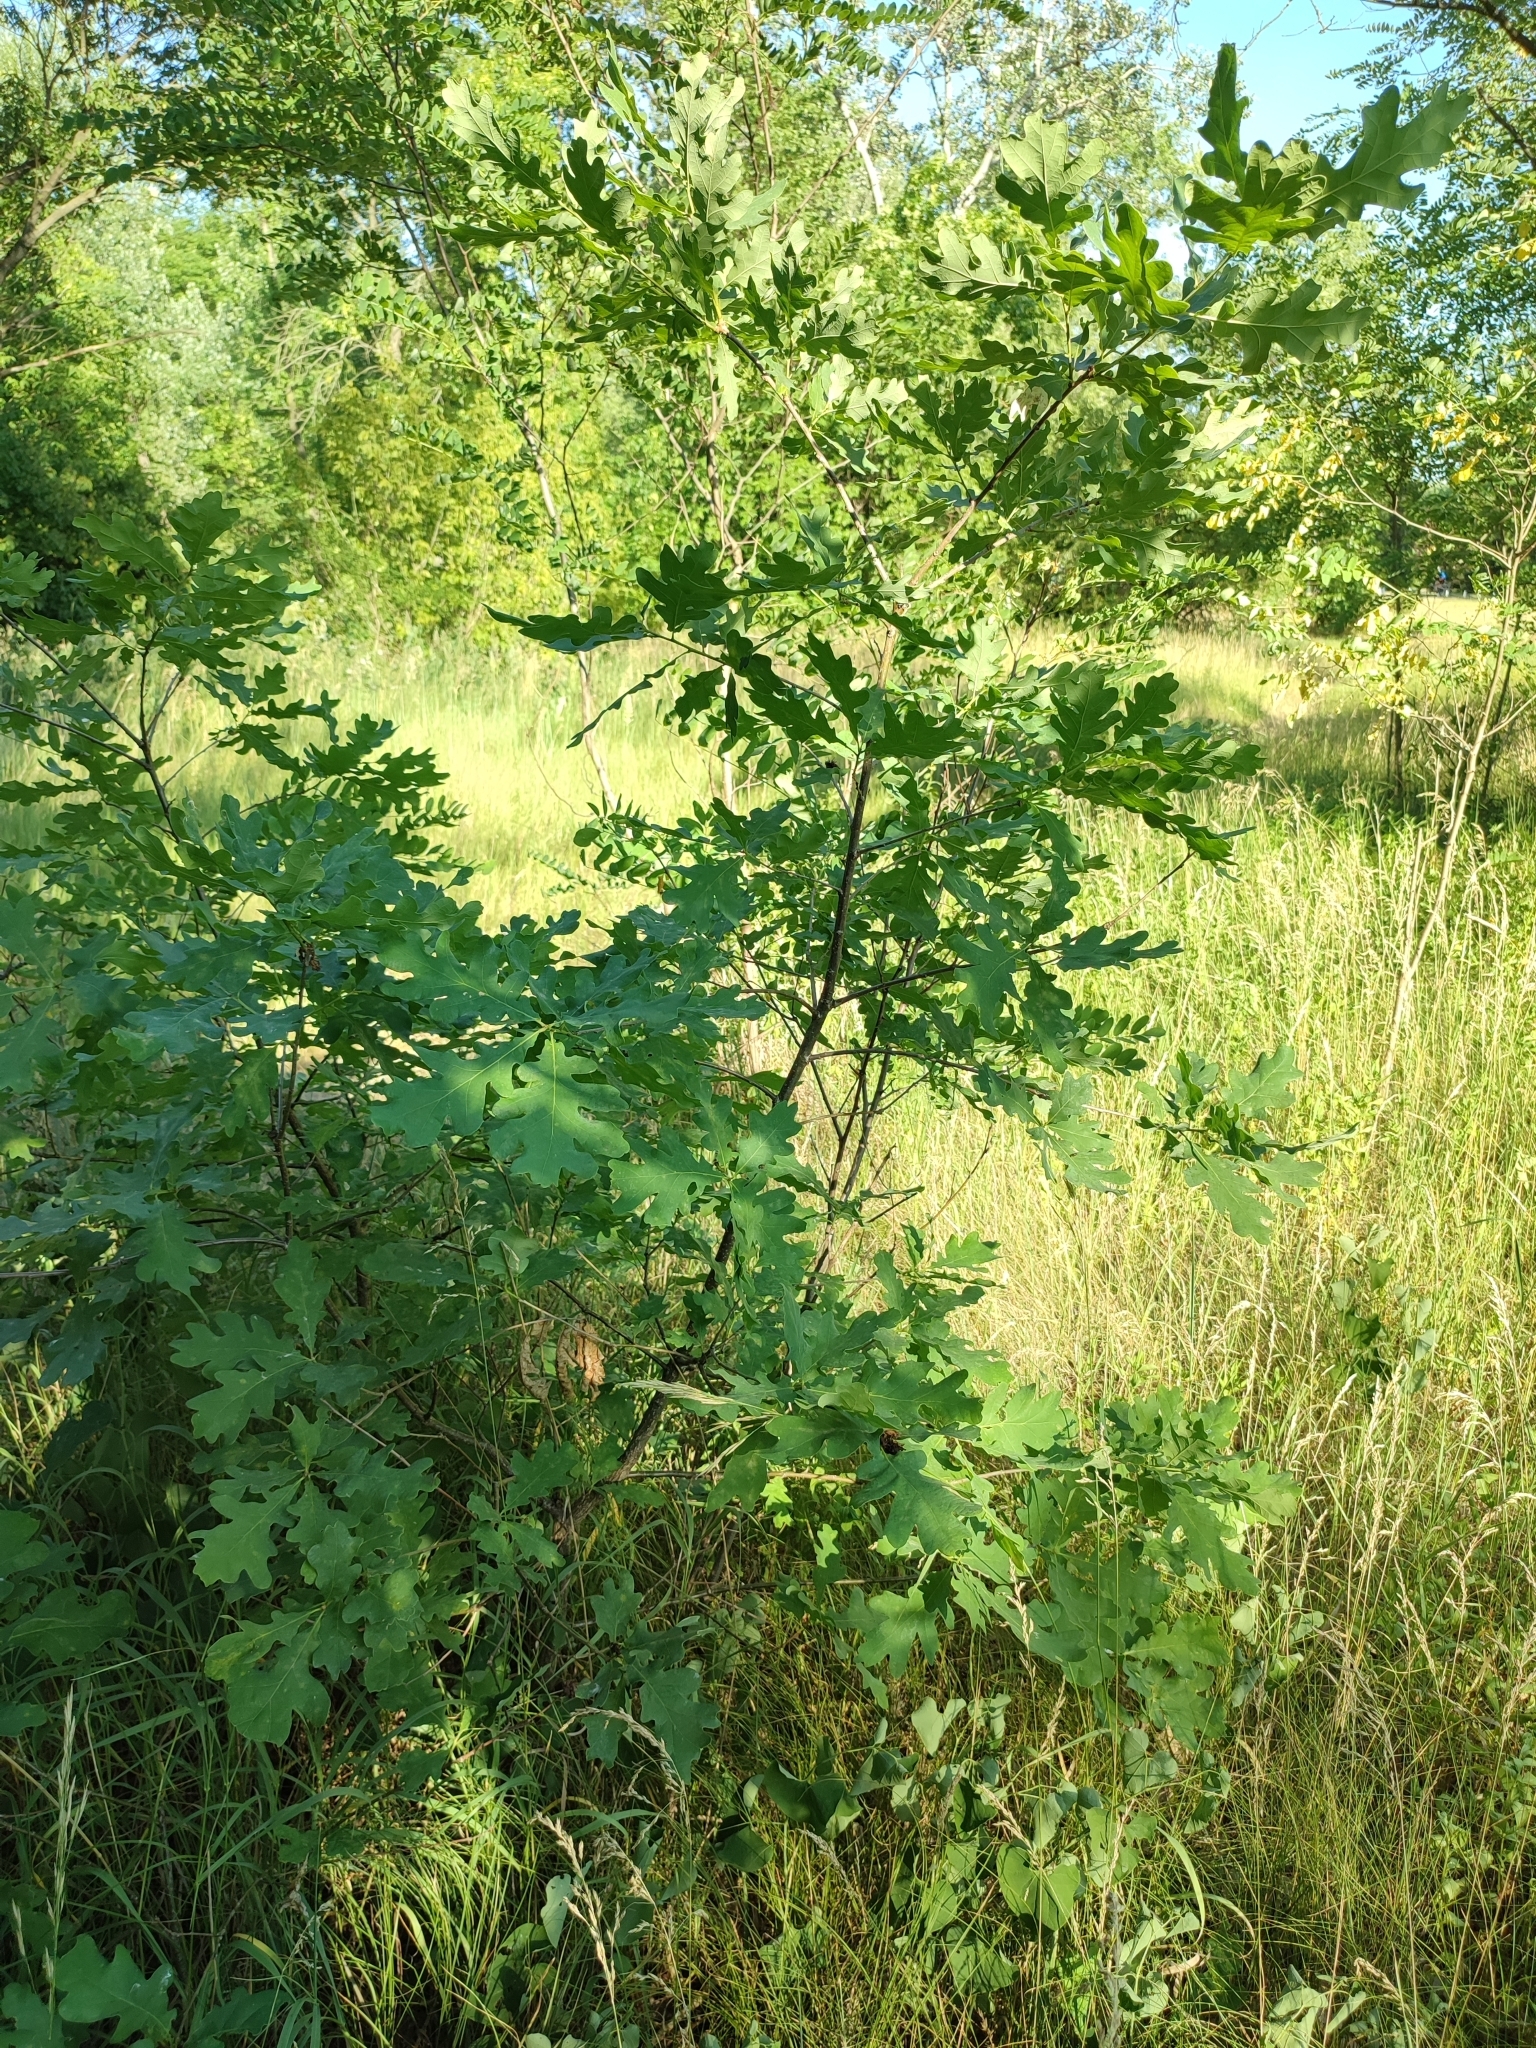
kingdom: Plantae
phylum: Tracheophyta
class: Magnoliopsida
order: Fagales
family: Fagaceae
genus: Quercus
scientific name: Quercus robur
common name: Pedunculate oak
